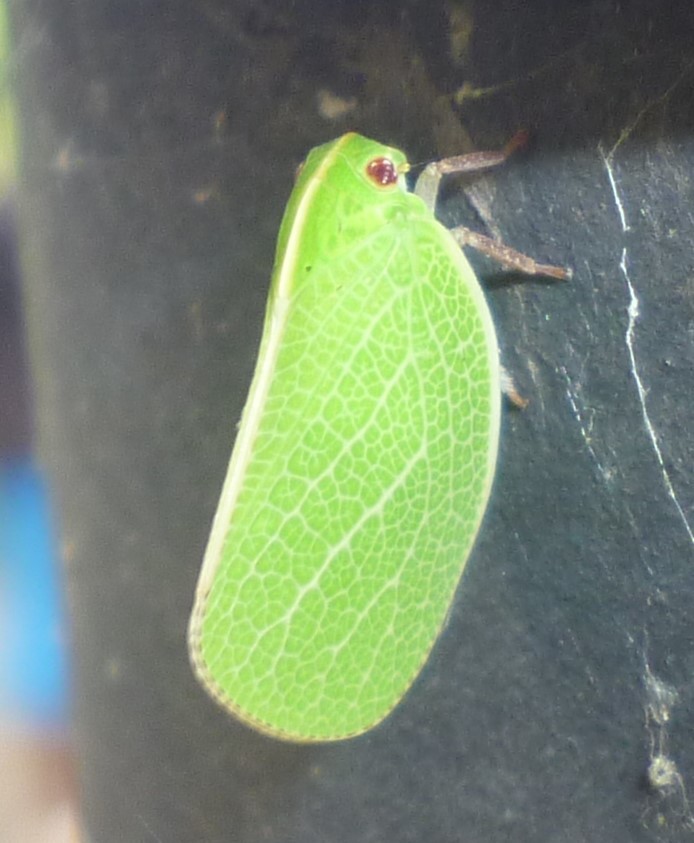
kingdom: Animalia
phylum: Arthropoda
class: Insecta
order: Hemiptera
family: Acanaloniidae
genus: Acanalonia
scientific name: Acanalonia servillei
